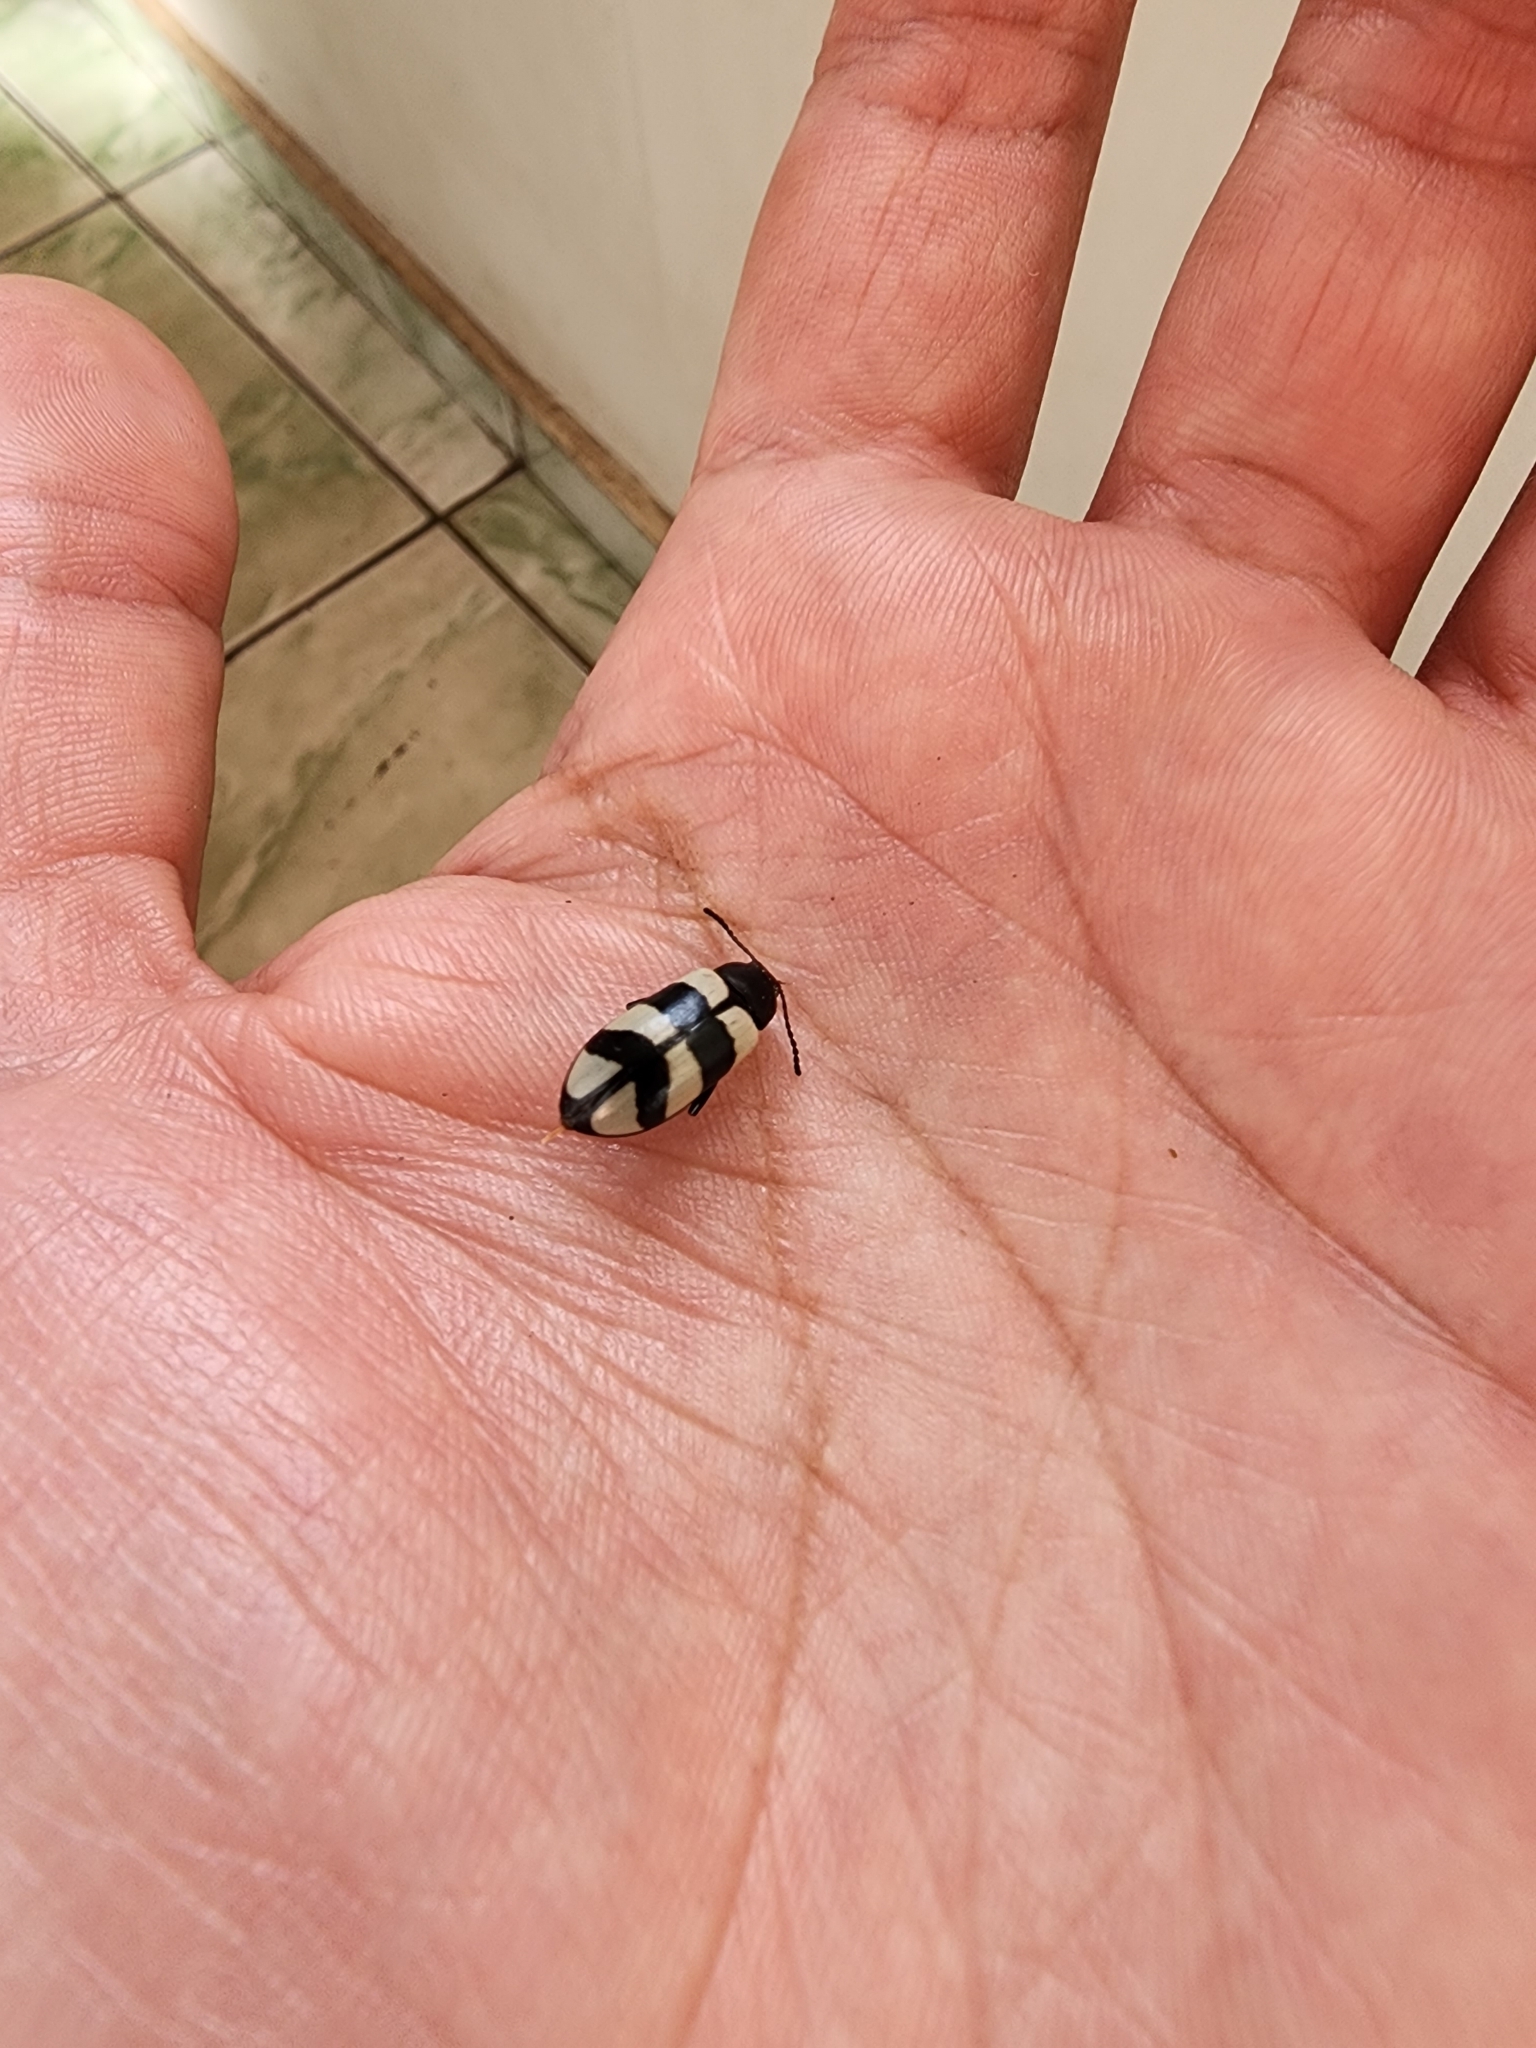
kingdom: Animalia
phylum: Arthropoda
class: Insecta
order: Coleoptera
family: Tenebrionidae
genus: Poecilesthus
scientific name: Poecilesthus
